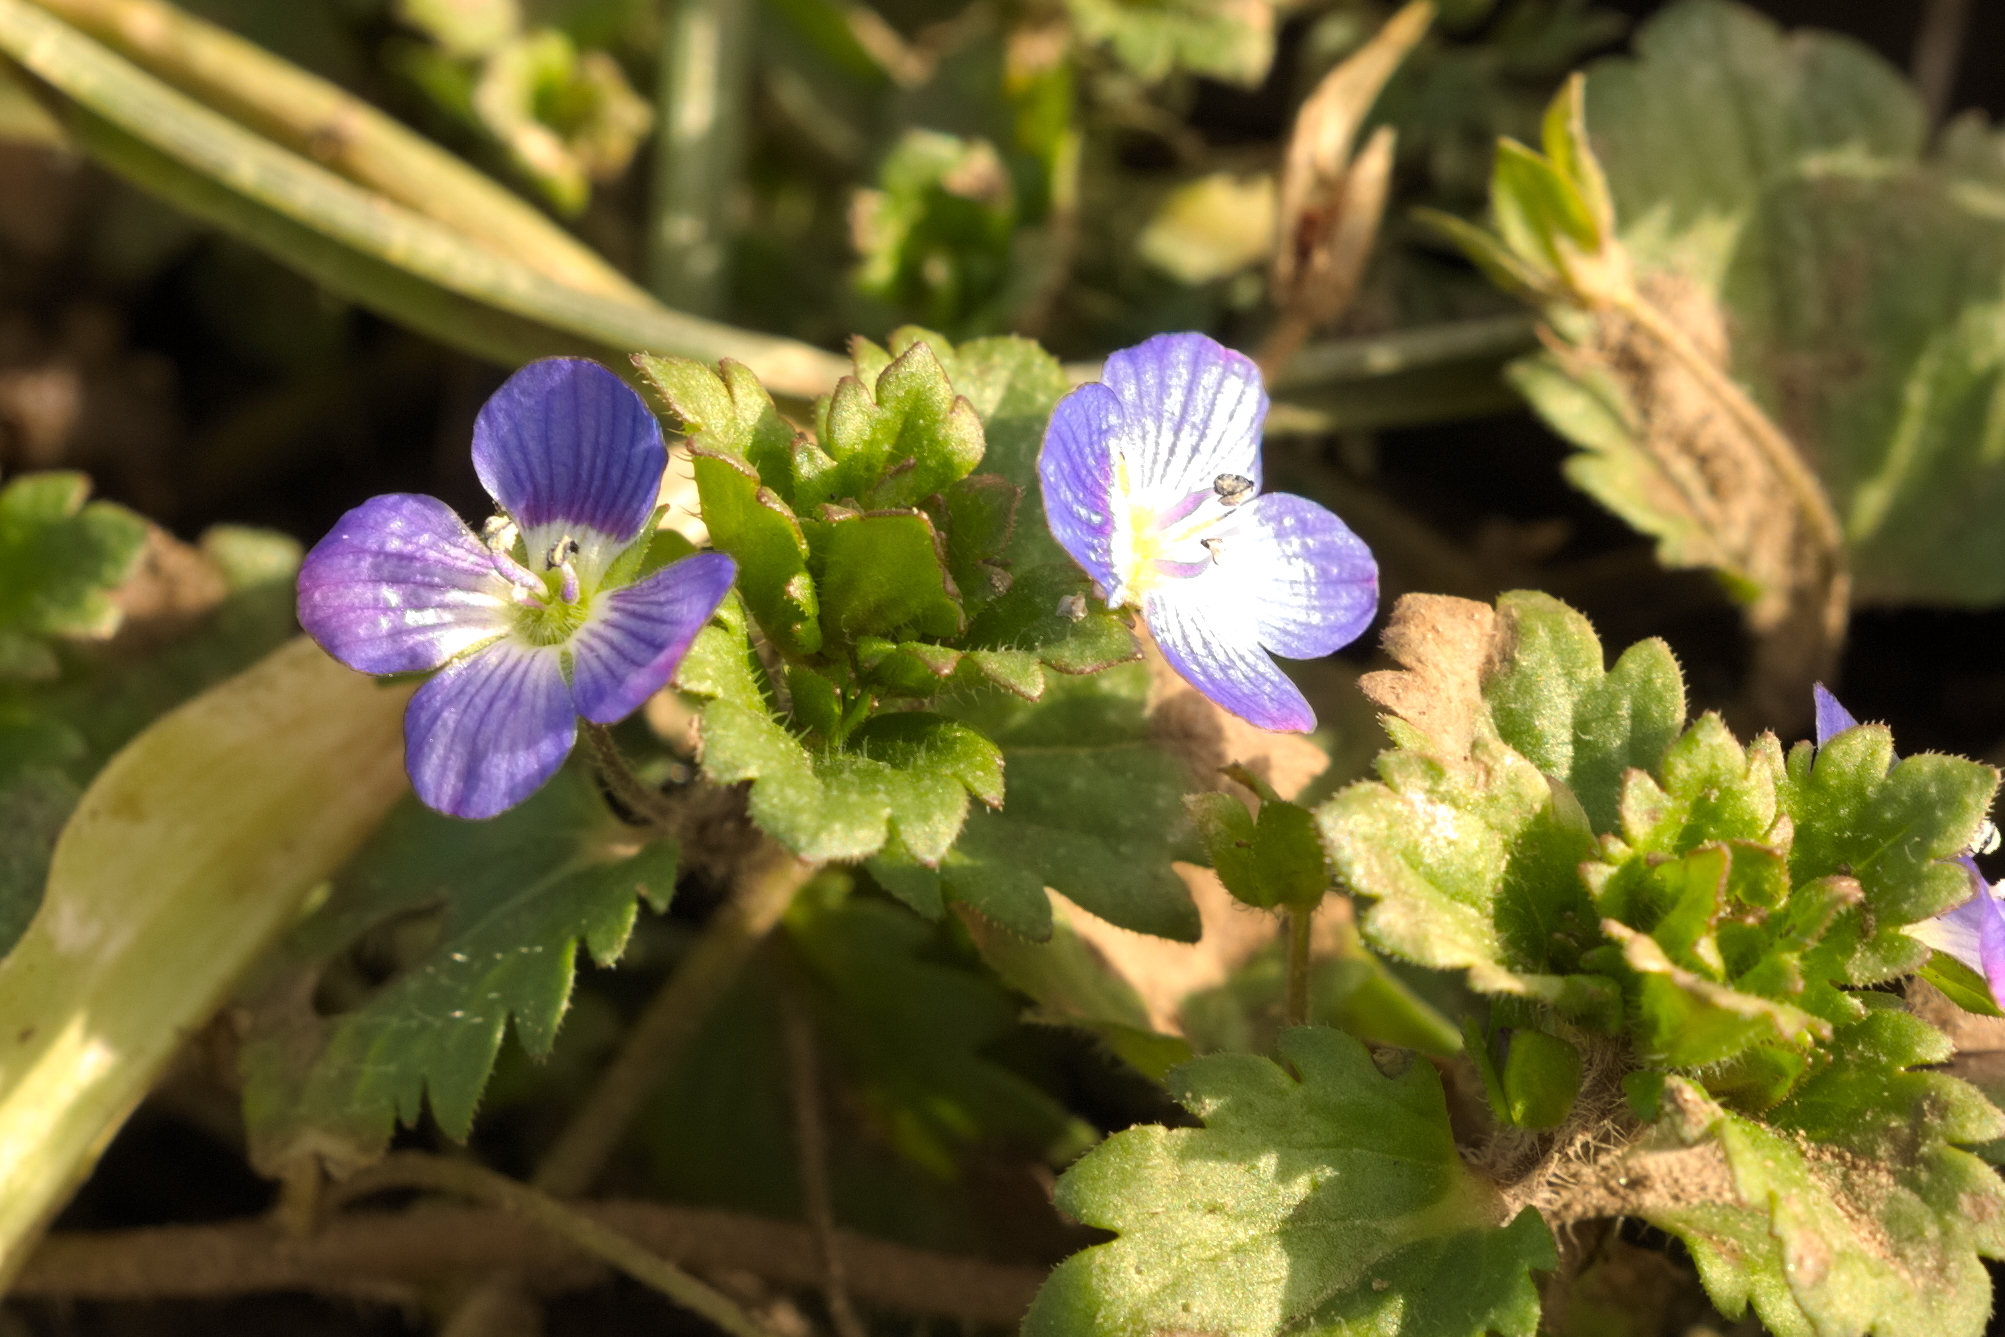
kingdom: Plantae
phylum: Tracheophyta
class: Magnoliopsida
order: Lamiales
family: Plantaginaceae
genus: Veronica
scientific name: Veronica persica
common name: Common field-speedwell
